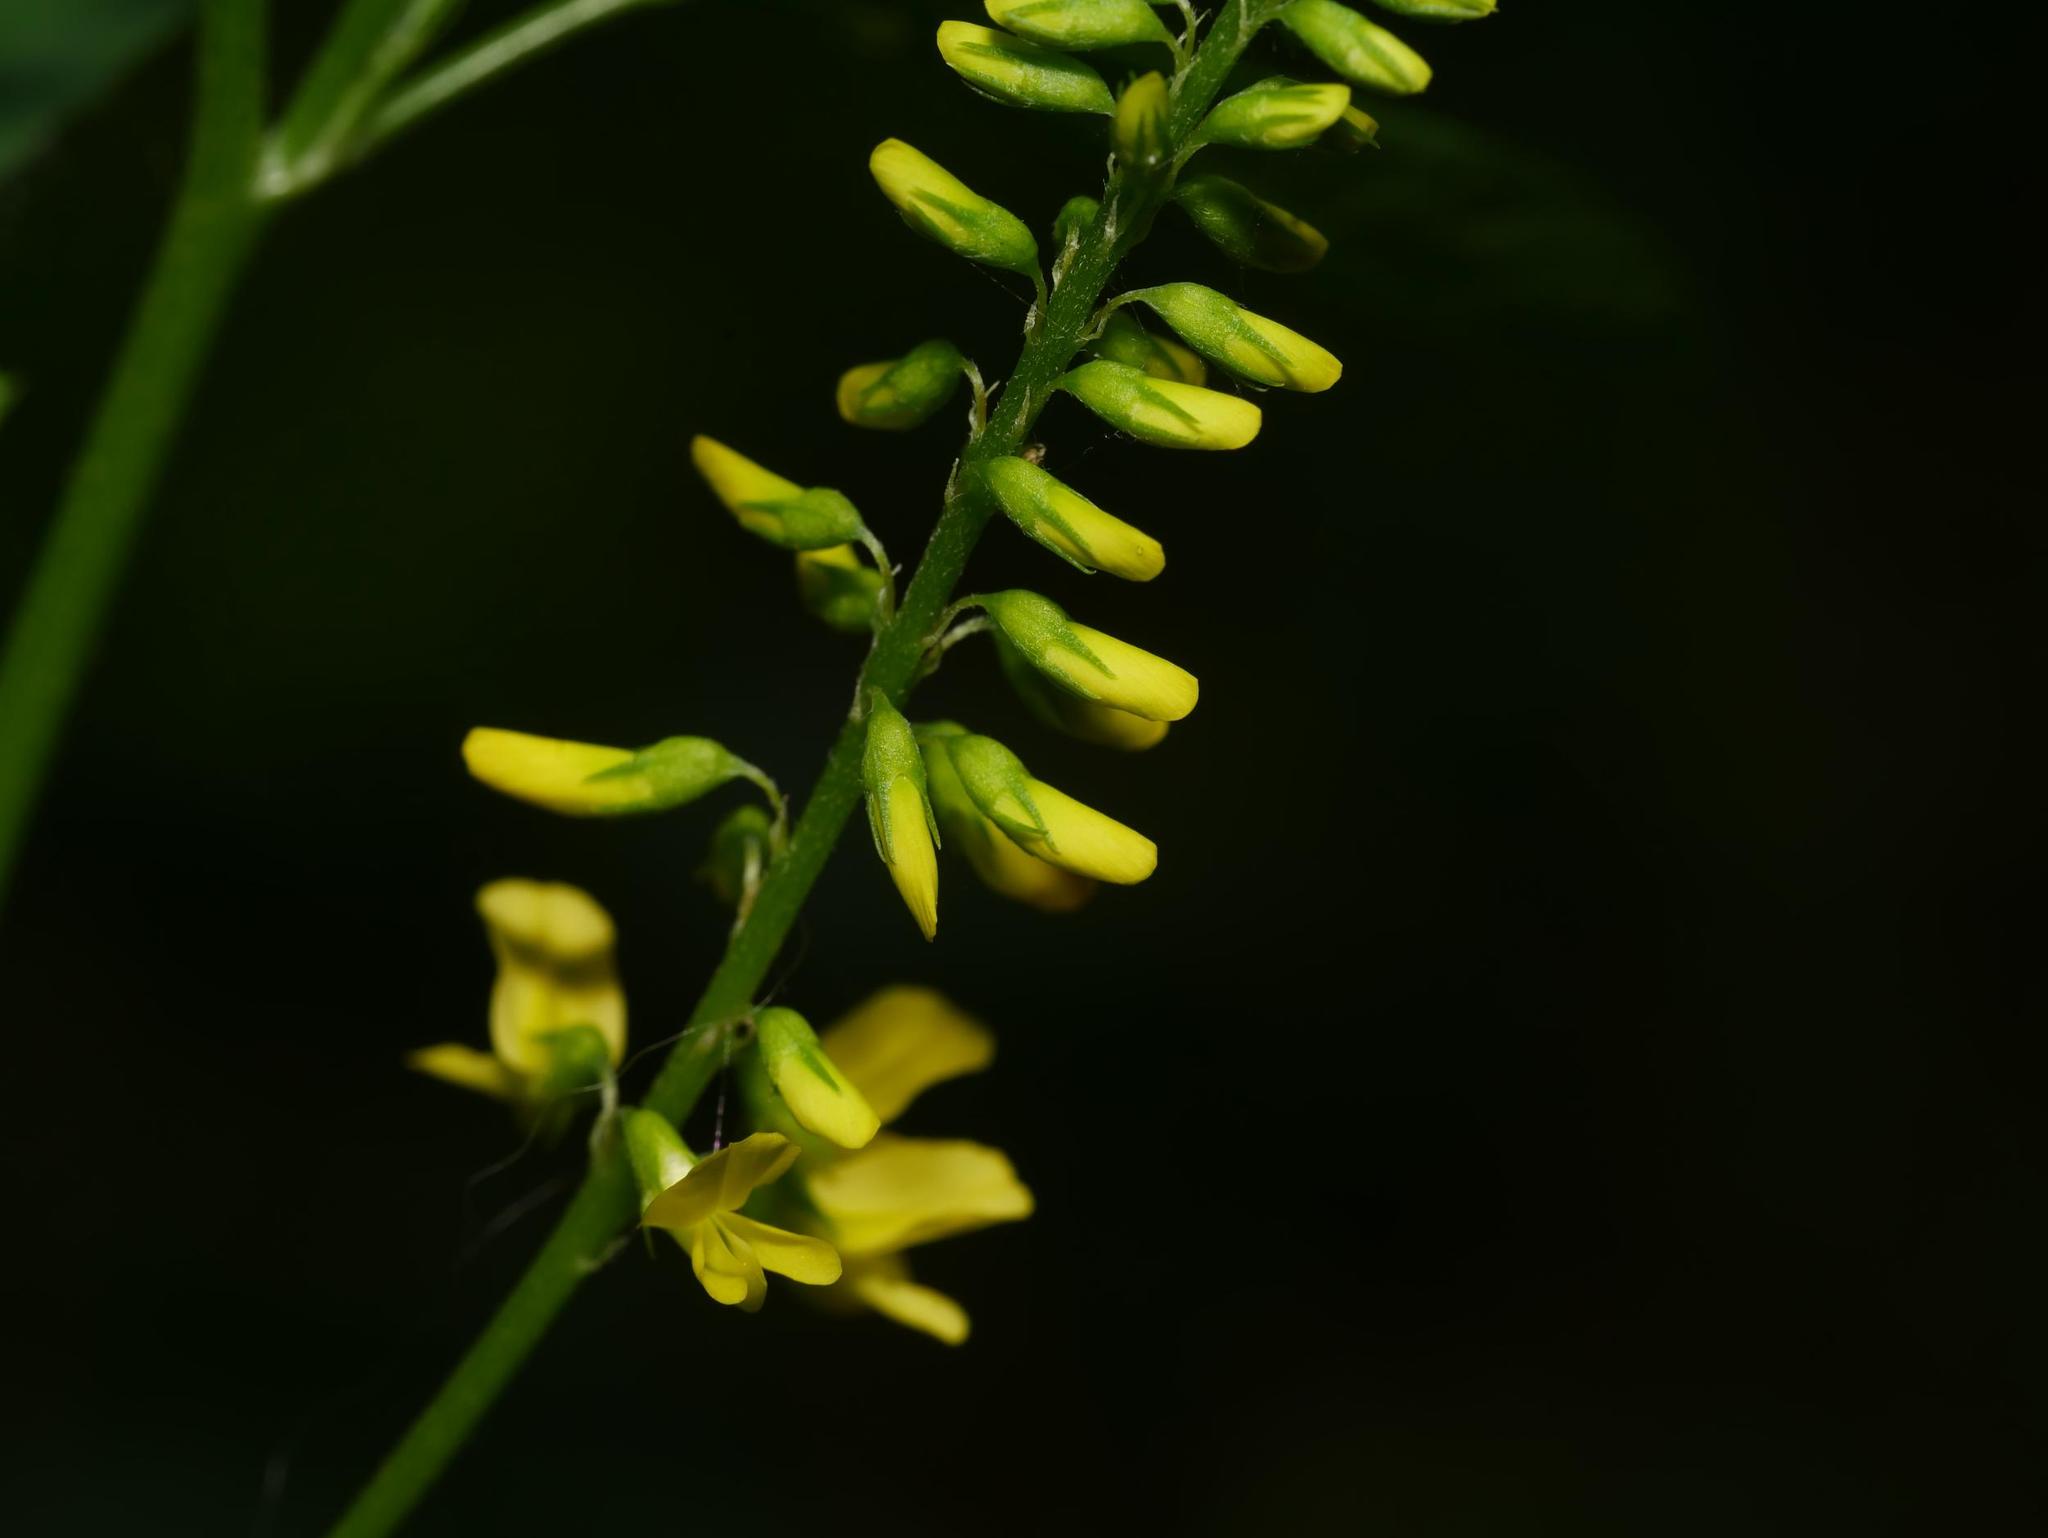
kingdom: Plantae
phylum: Tracheophyta
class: Magnoliopsida
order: Fabales
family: Fabaceae
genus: Melilotus
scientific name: Melilotus officinalis
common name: Sweetclover
